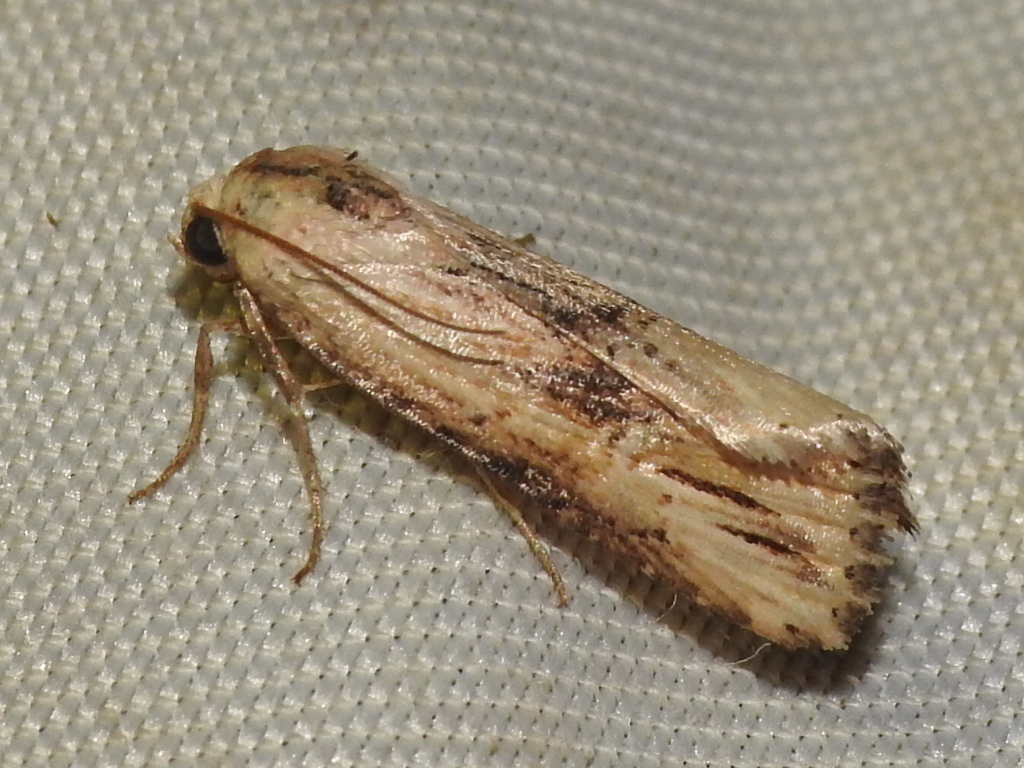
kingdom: Animalia
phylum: Arthropoda
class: Insecta
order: Lepidoptera
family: Noctuidae
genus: Crambodes
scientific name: Crambodes talidiformis
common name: Verbena moth
